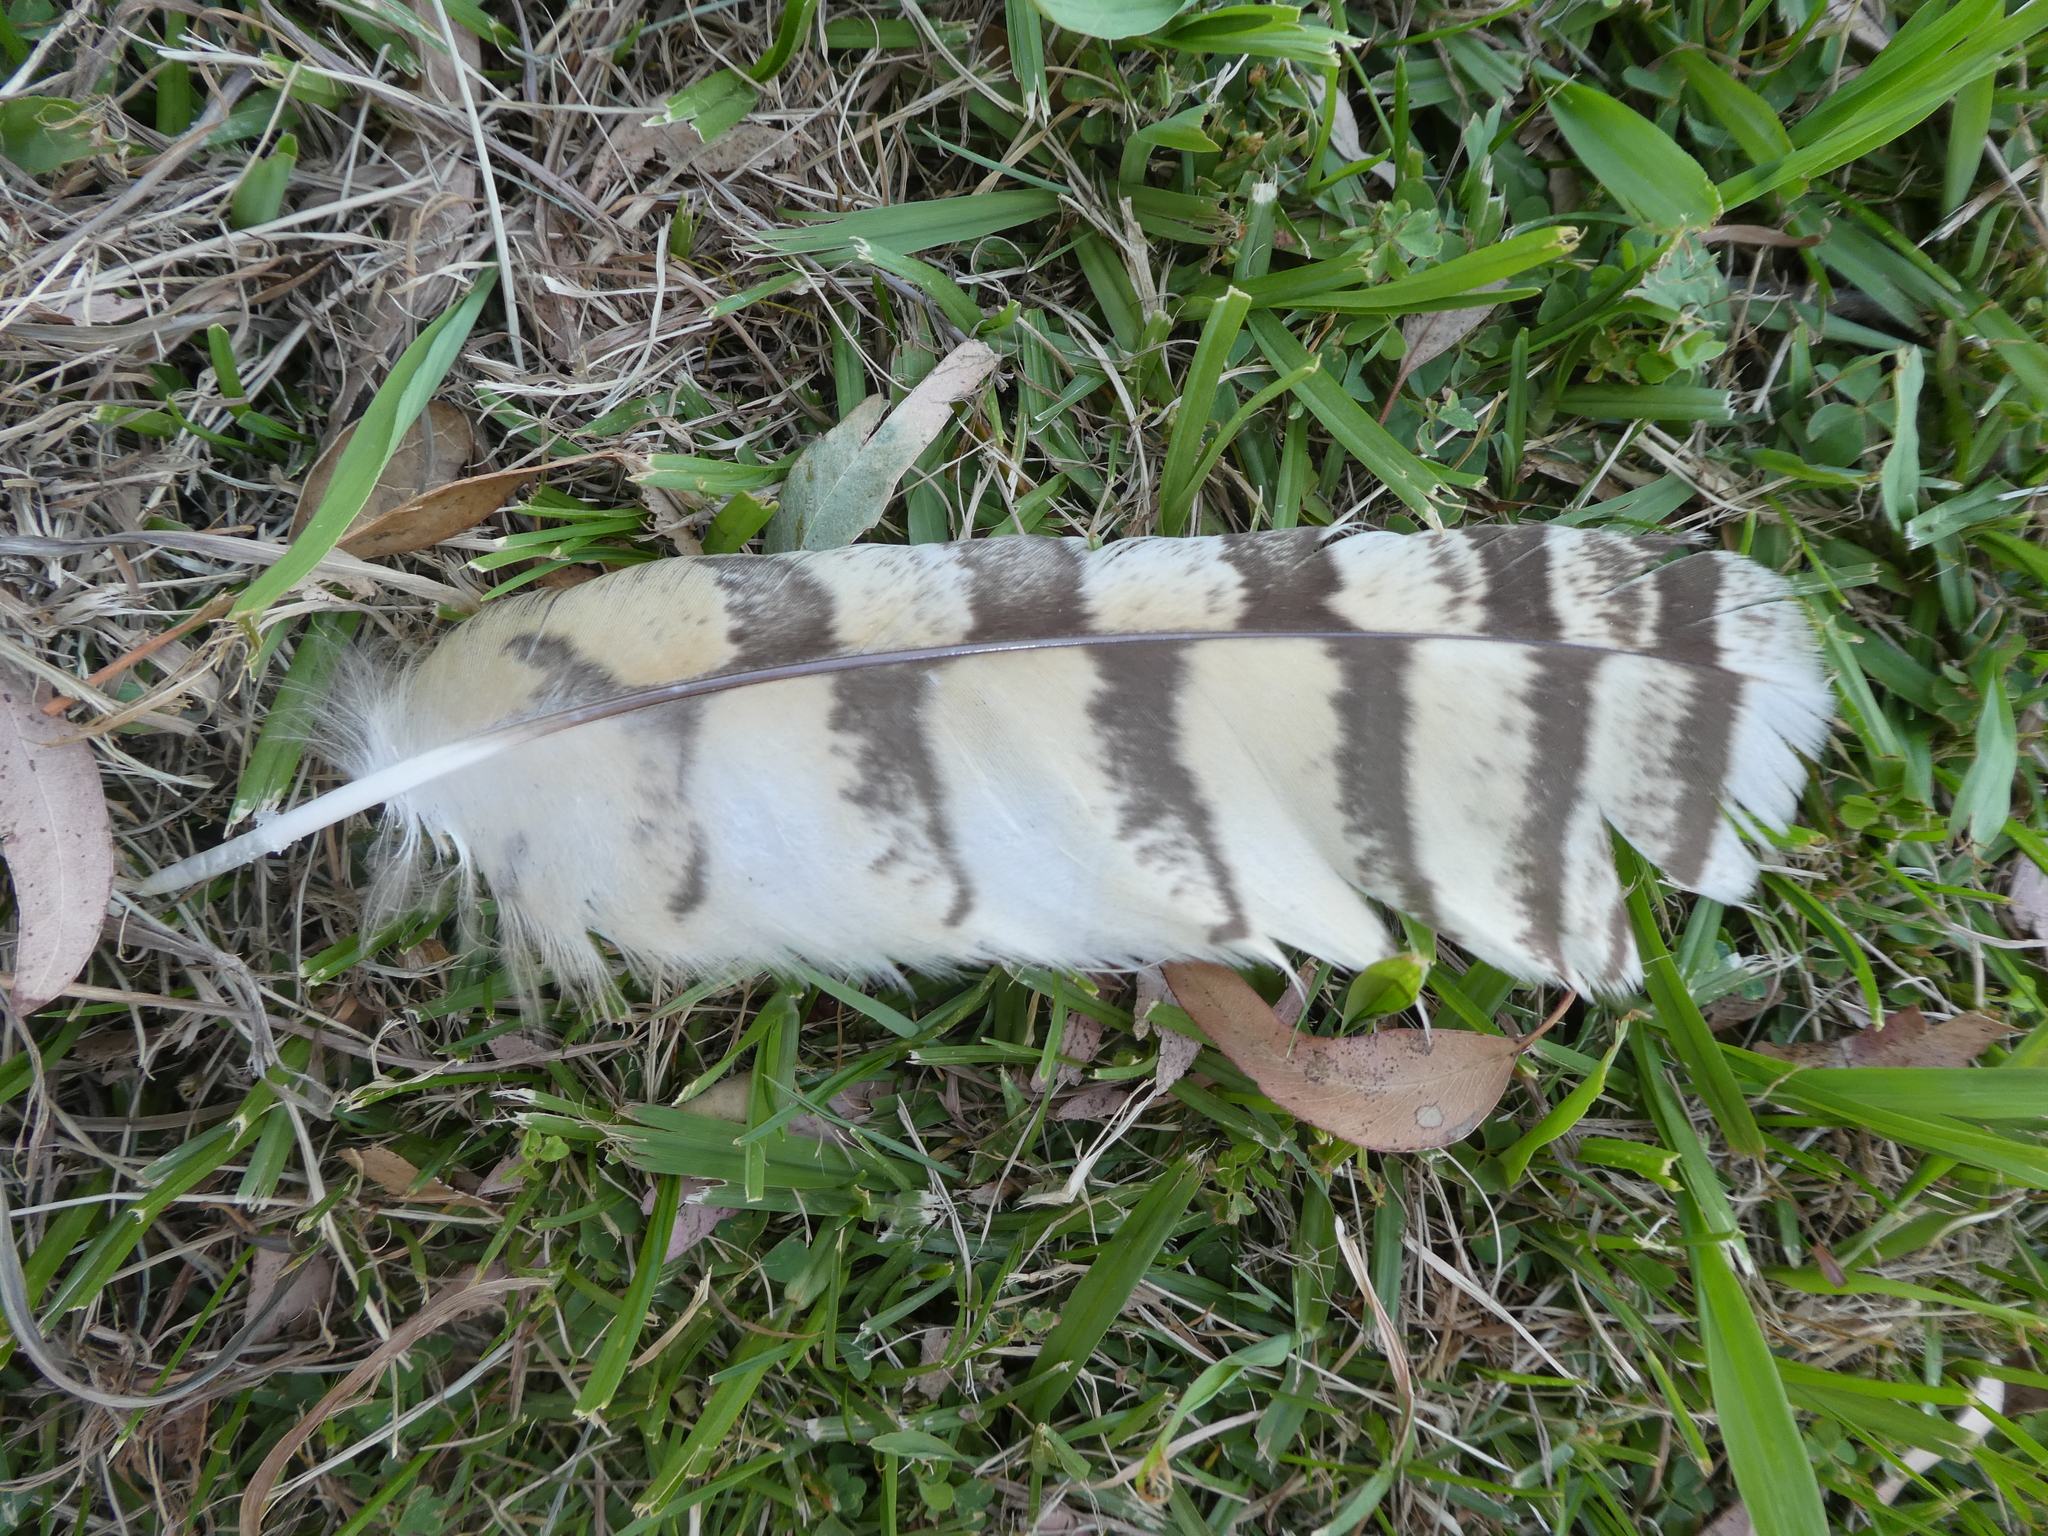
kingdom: Animalia
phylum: Chordata
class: Aves
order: Strigiformes
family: Strigidae
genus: Bubo
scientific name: Bubo virginianus
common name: Great horned owl
